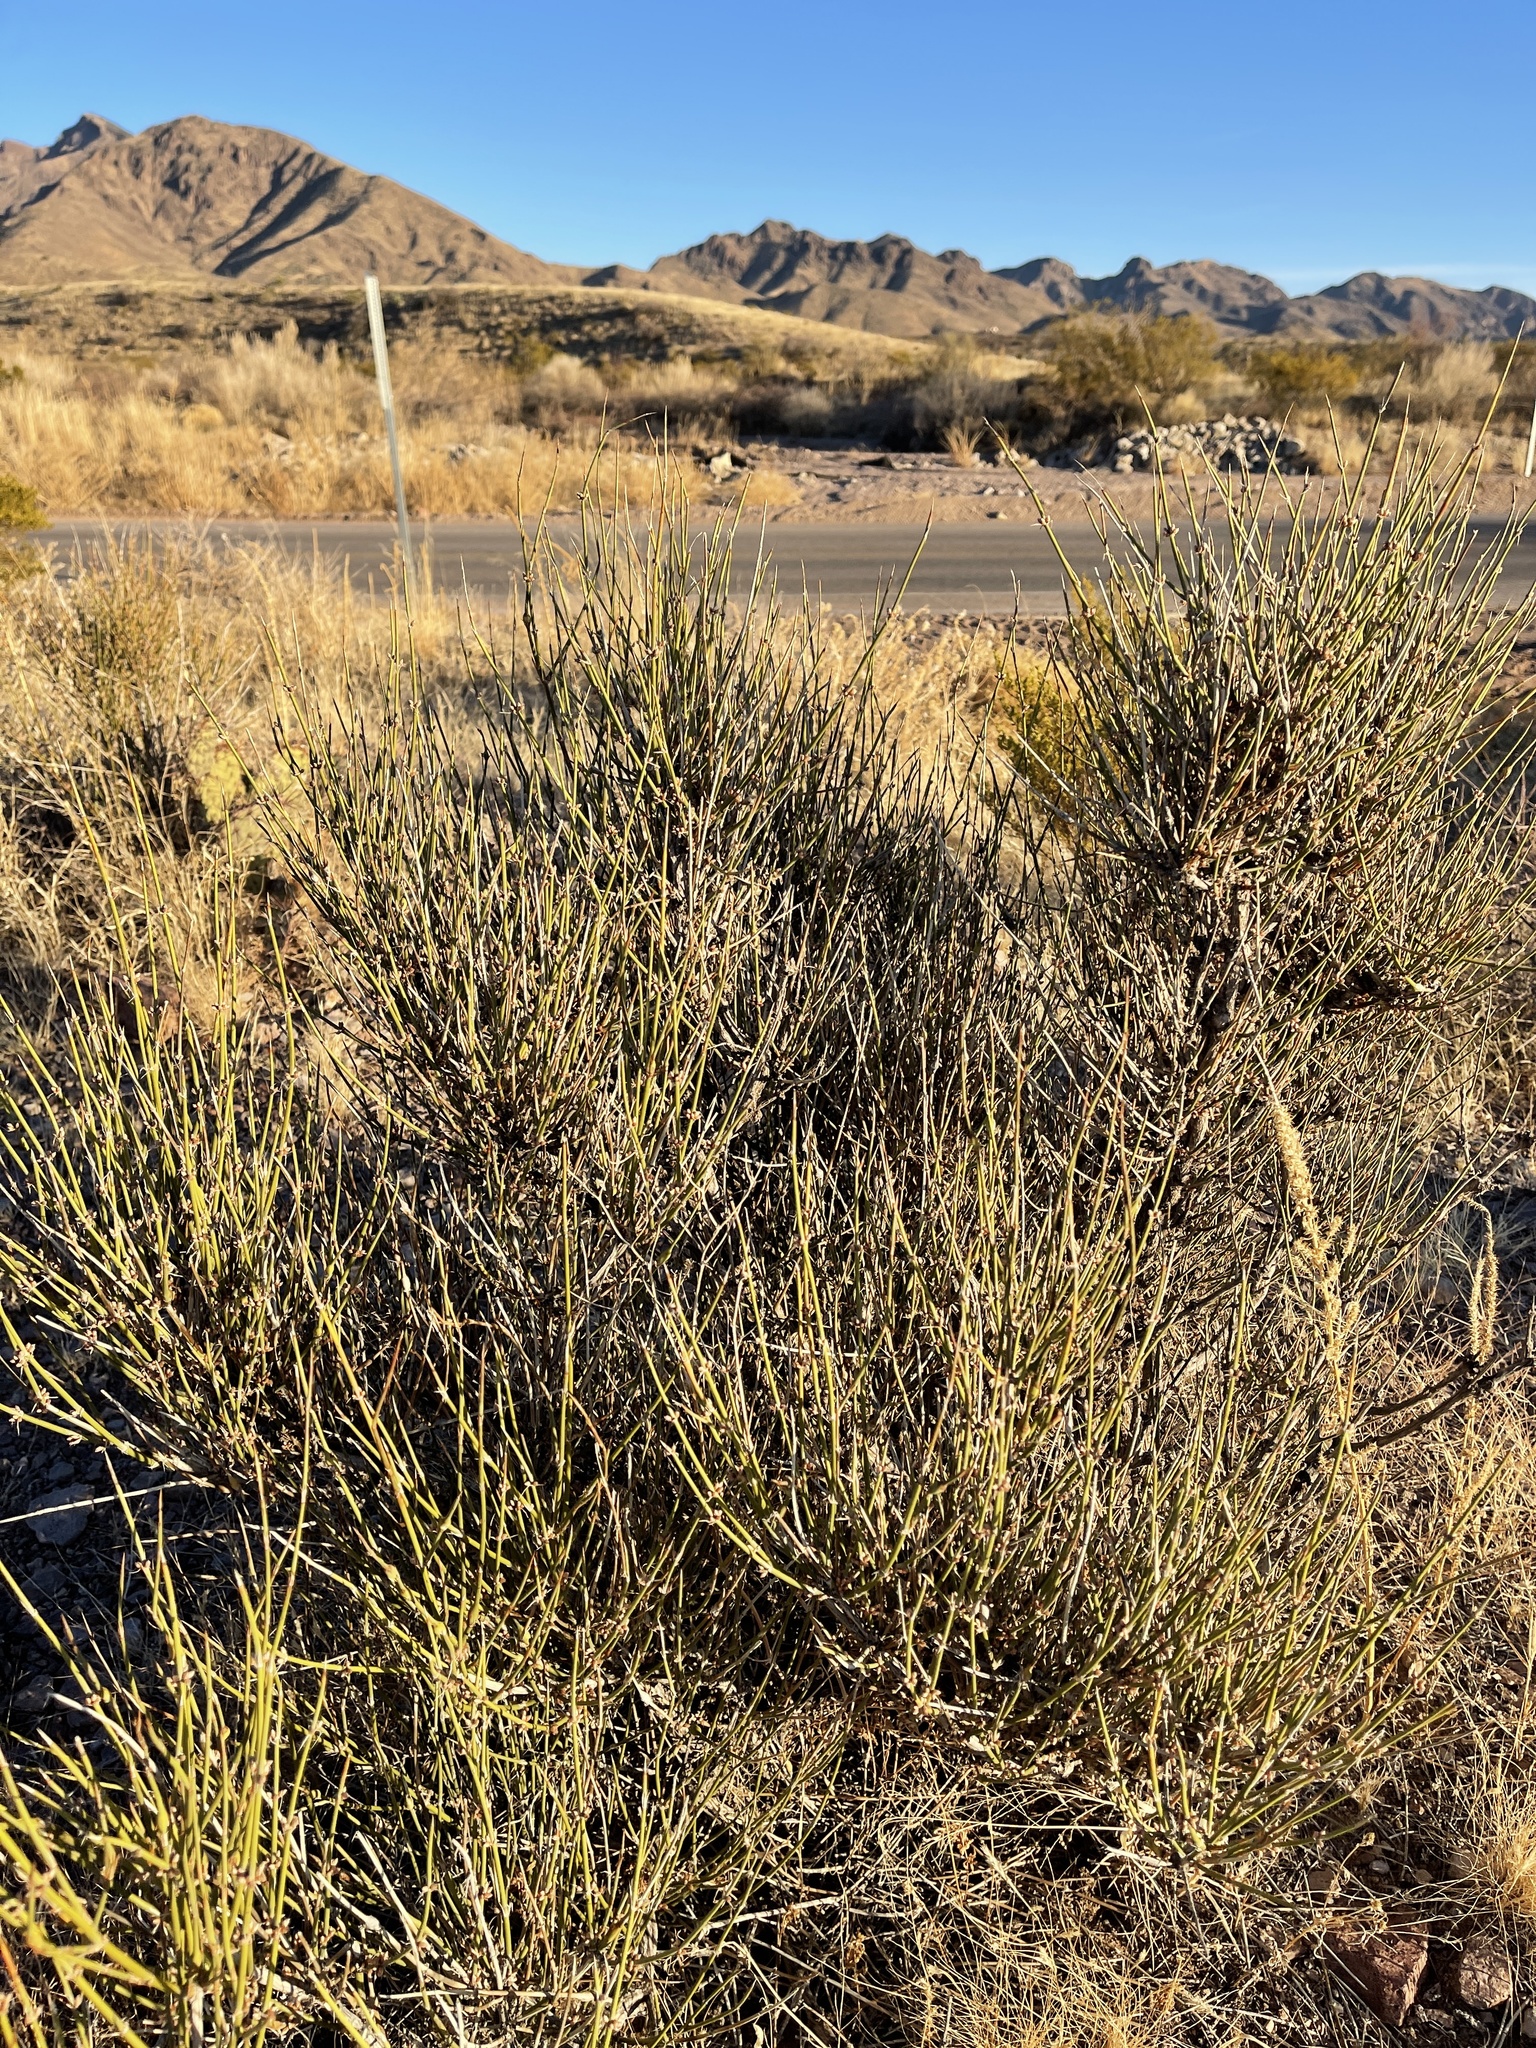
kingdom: Plantae
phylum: Tracheophyta
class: Gnetopsida
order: Ephedrales
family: Ephedraceae
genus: Ephedra
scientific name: Ephedra trifurca
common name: Mexican-tea
